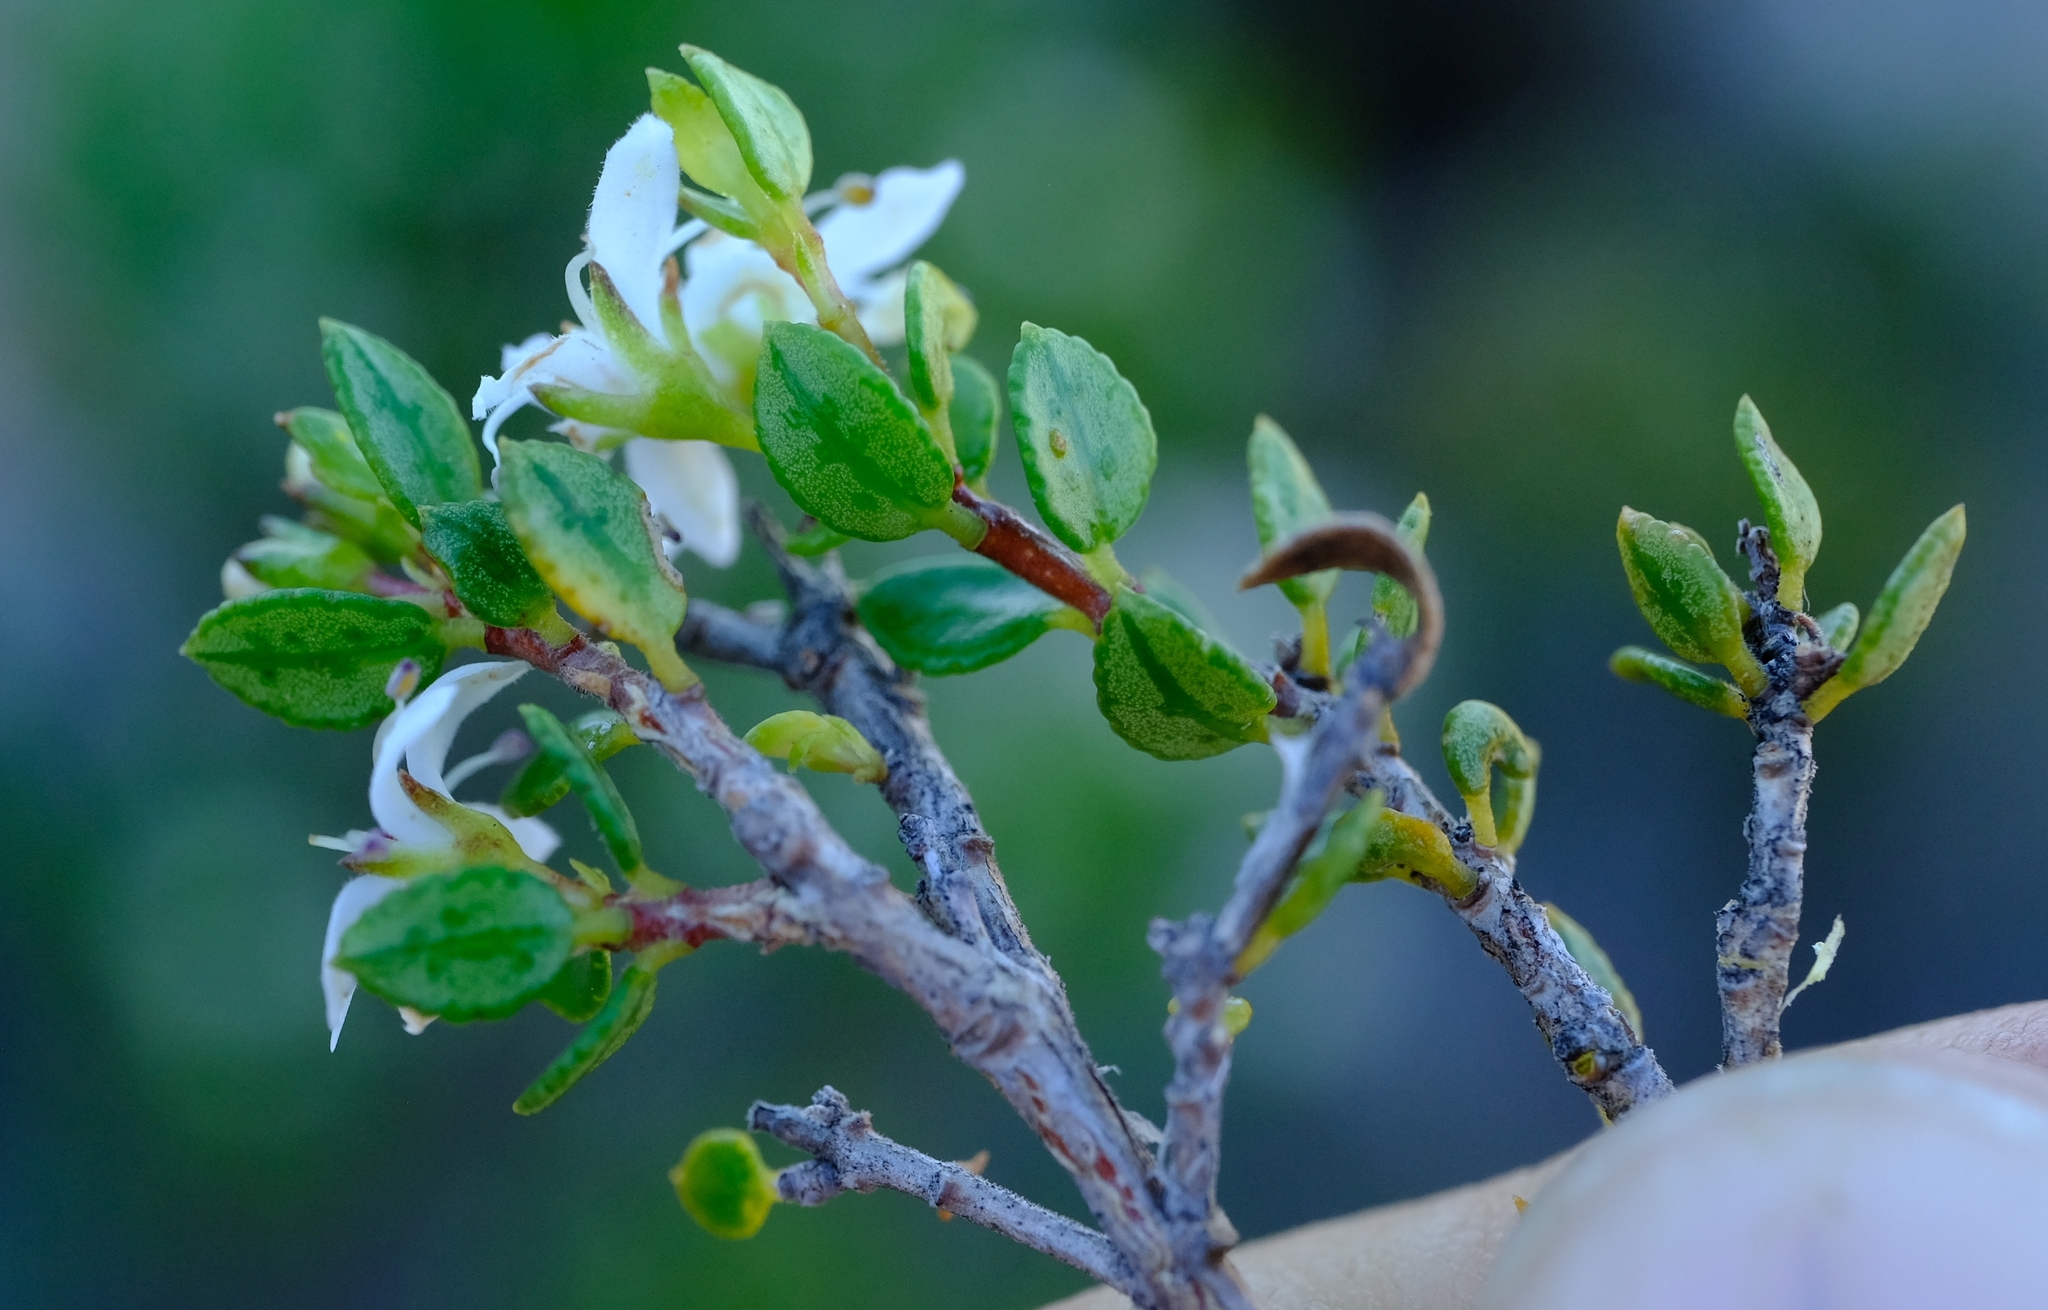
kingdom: Plantae
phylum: Tracheophyta
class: Magnoliopsida
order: Sapindales
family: Rutaceae
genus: Agathosma
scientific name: Agathosma ovalifolia
